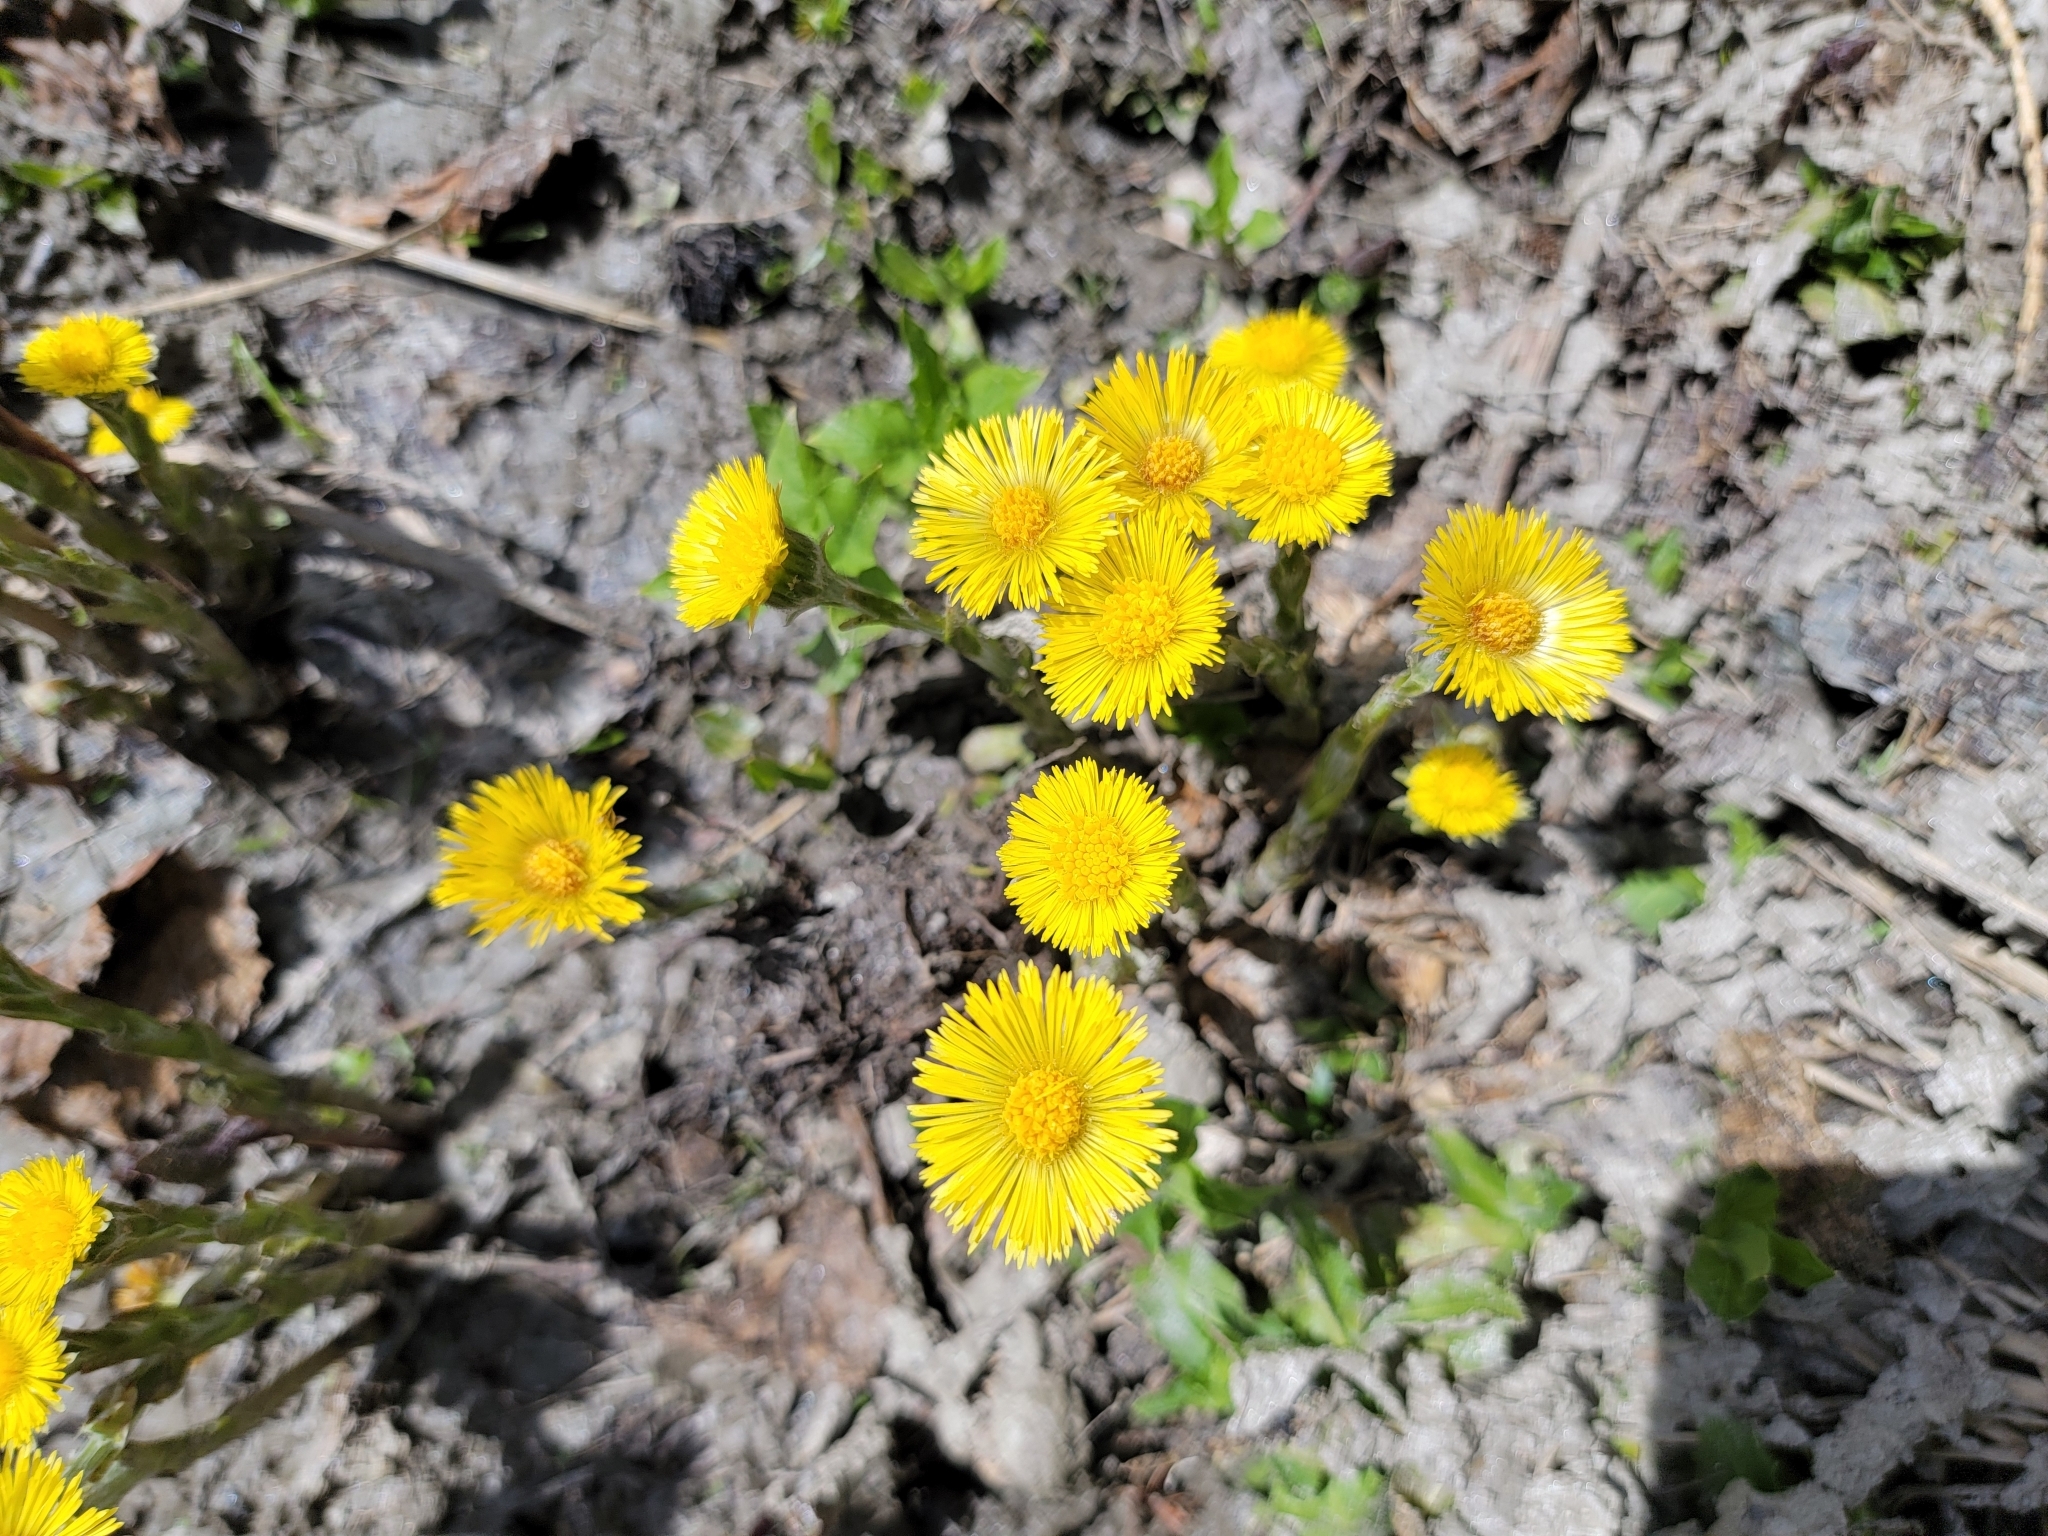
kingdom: Plantae
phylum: Tracheophyta
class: Magnoliopsida
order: Asterales
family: Asteraceae
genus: Tussilago
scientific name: Tussilago farfara
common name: Coltsfoot
